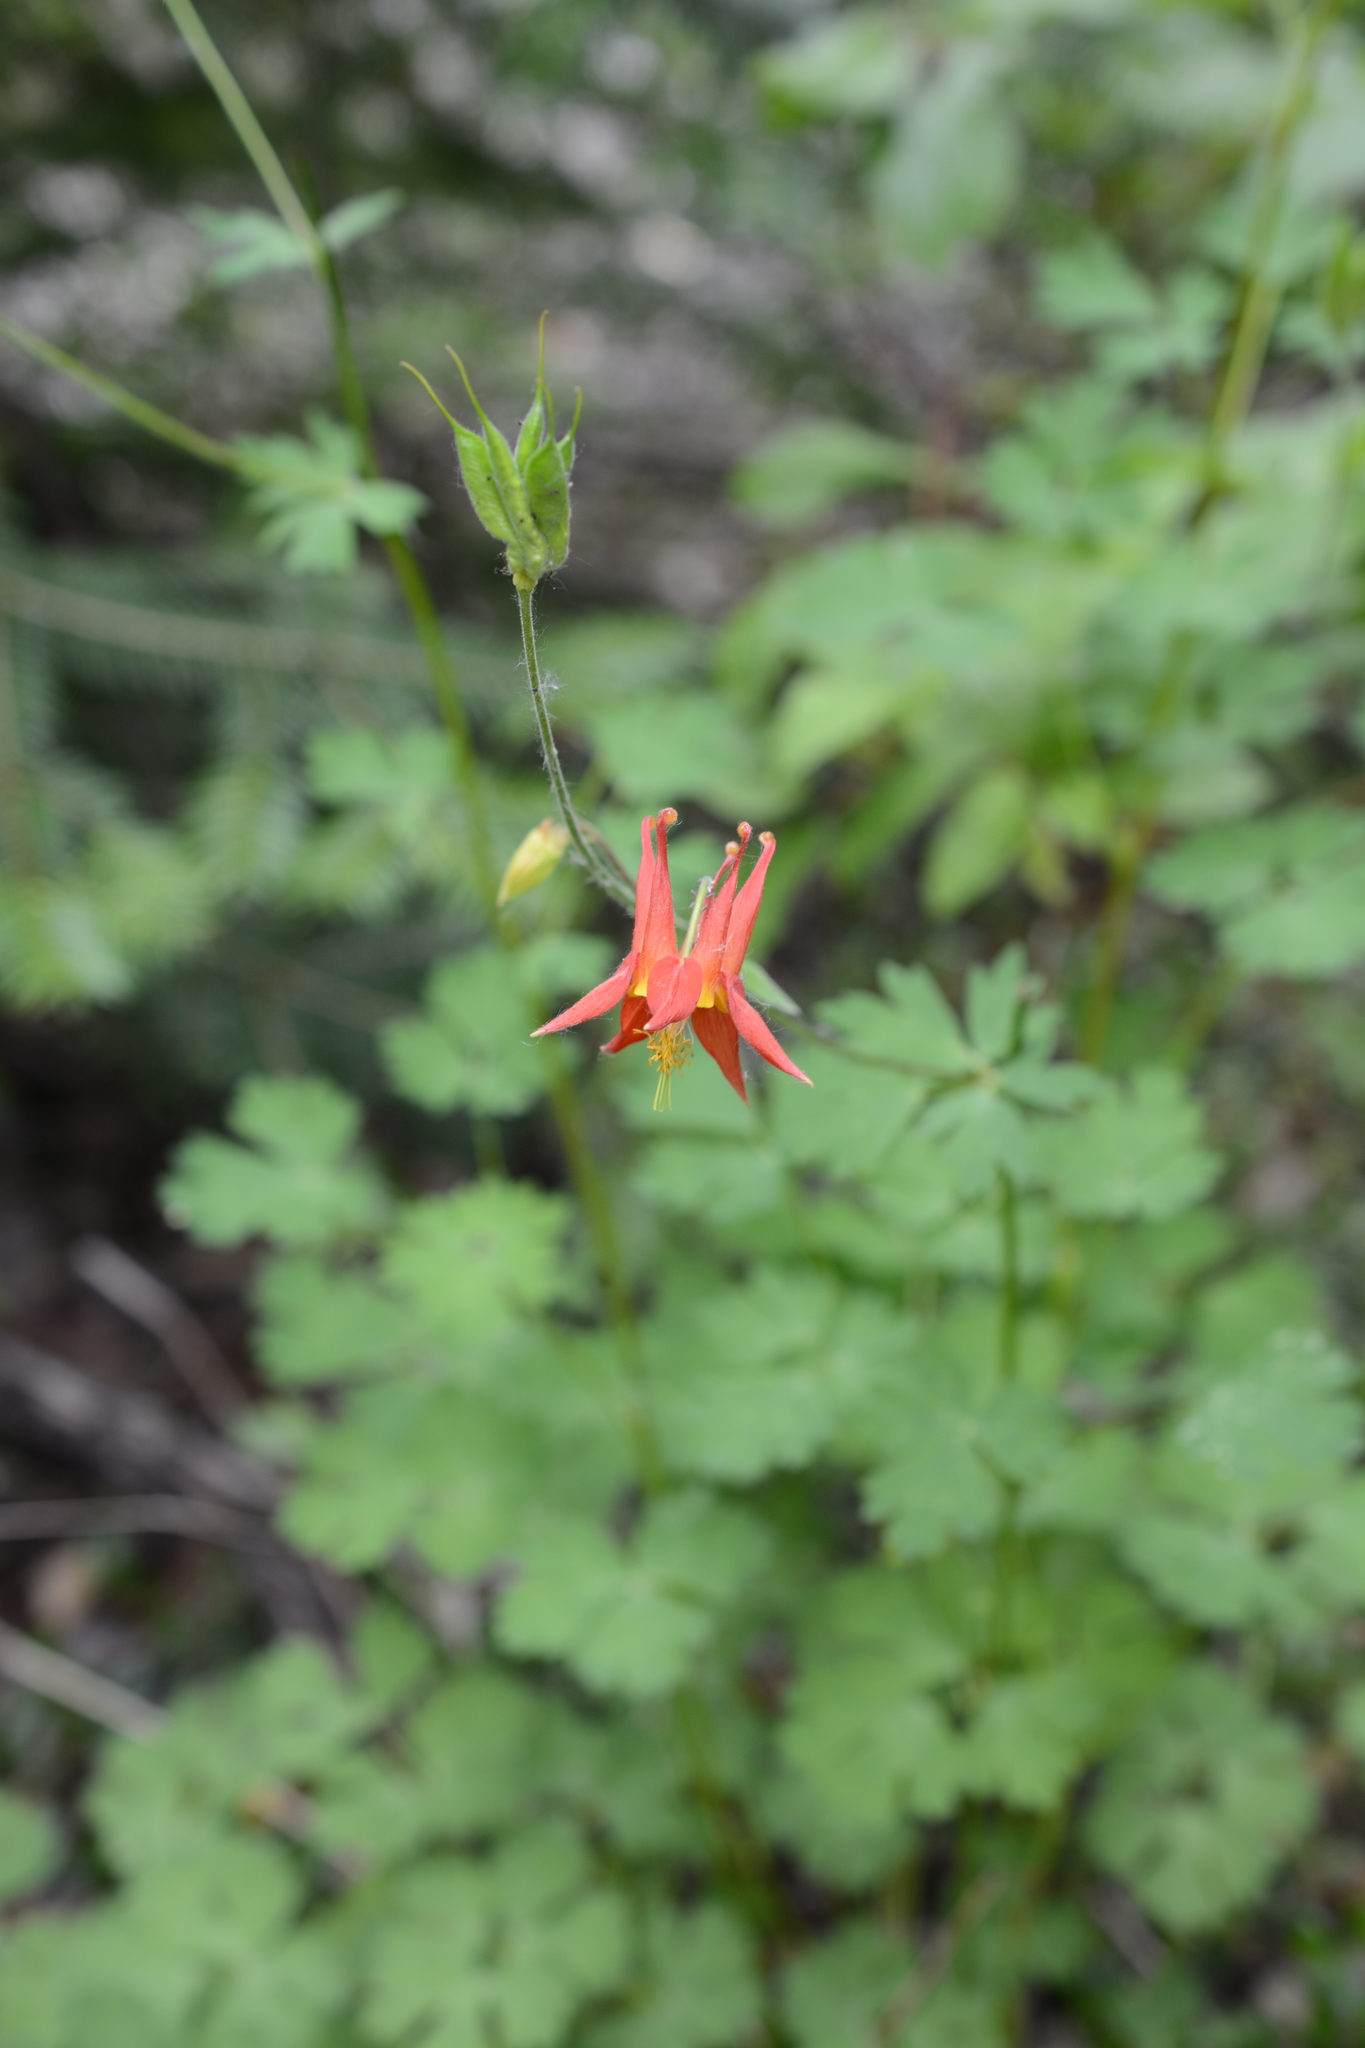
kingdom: Plantae
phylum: Tracheophyta
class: Magnoliopsida
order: Ranunculales
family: Ranunculaceae
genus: Aquilegia
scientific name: Aquilegia formosa
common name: Sitka columbine
